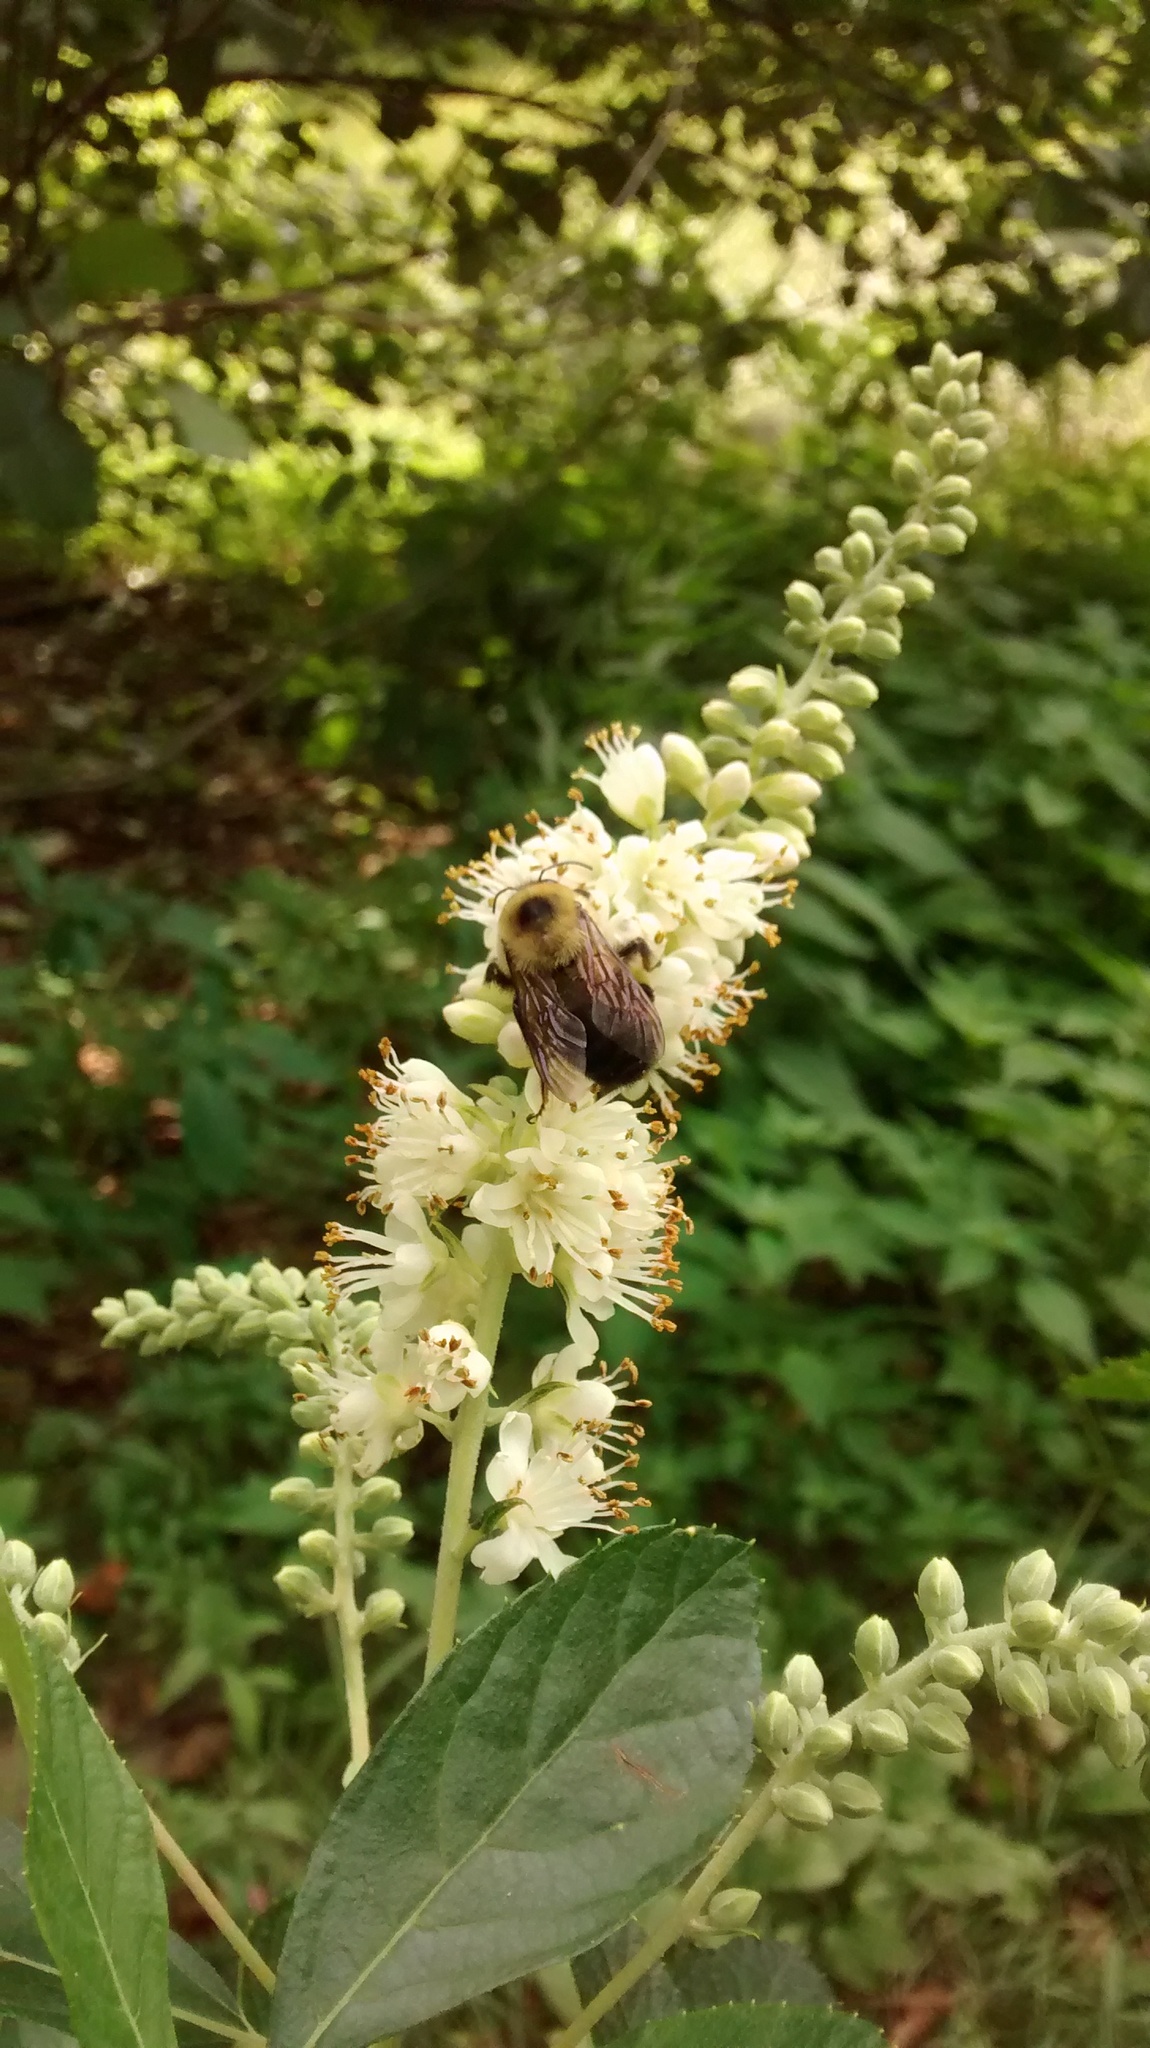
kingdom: Animalia
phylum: Arthropoda
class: Insecta
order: Hymenoptera
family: Apidae
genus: Bombus
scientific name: Bombus griseocollis
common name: Brown-belted bumble bee
